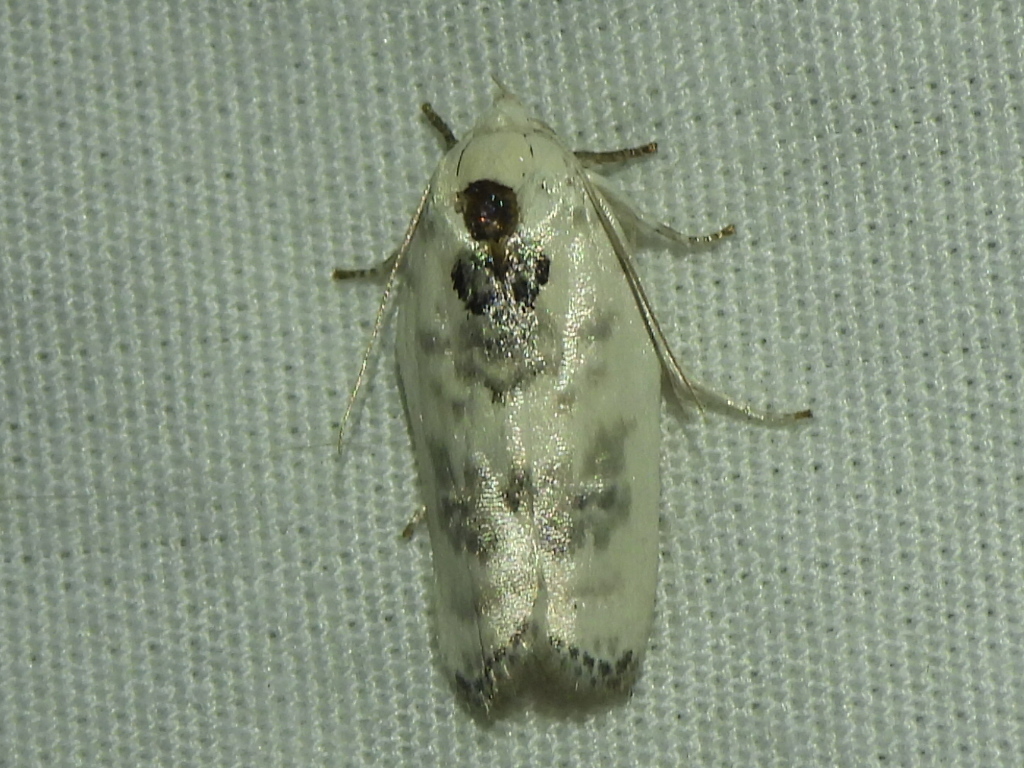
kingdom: Animalia
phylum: Arthropoda
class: Insecta
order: Lepidoptera
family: Depressariidae
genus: Antaeotricha
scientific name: Antaeotricha leucillana
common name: Pale gray bird-dropping moth
